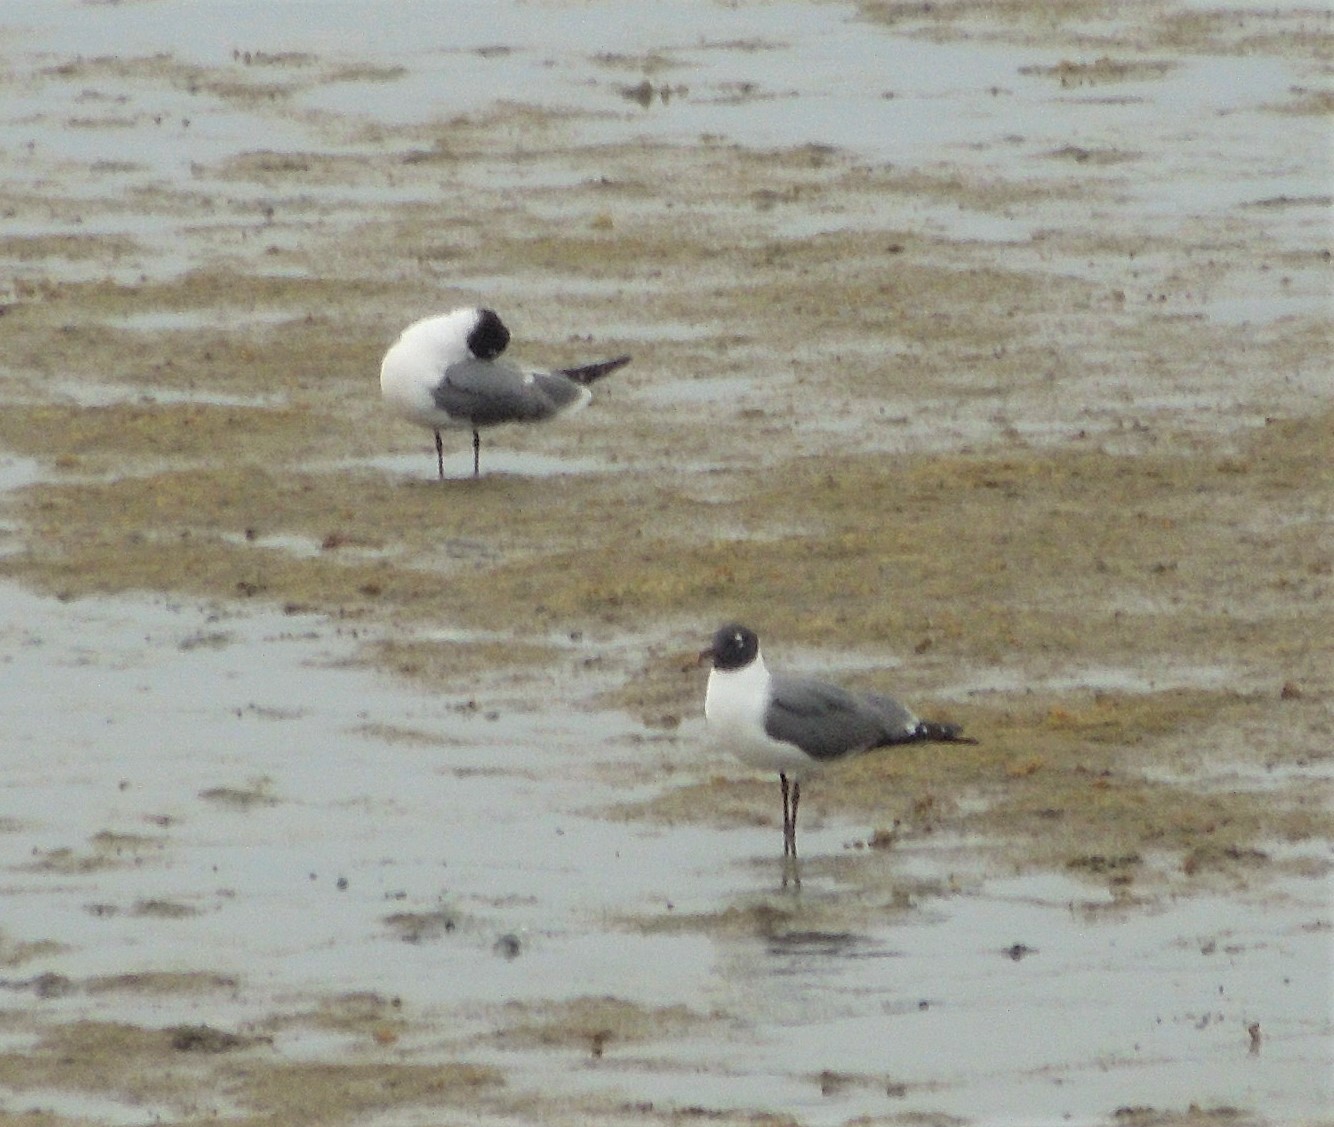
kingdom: Animalia
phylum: Chordata
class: Aves
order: Charadriiformes
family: Laridae
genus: Leucophaeus
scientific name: Leucophaeus atricilla
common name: Laughing gull
